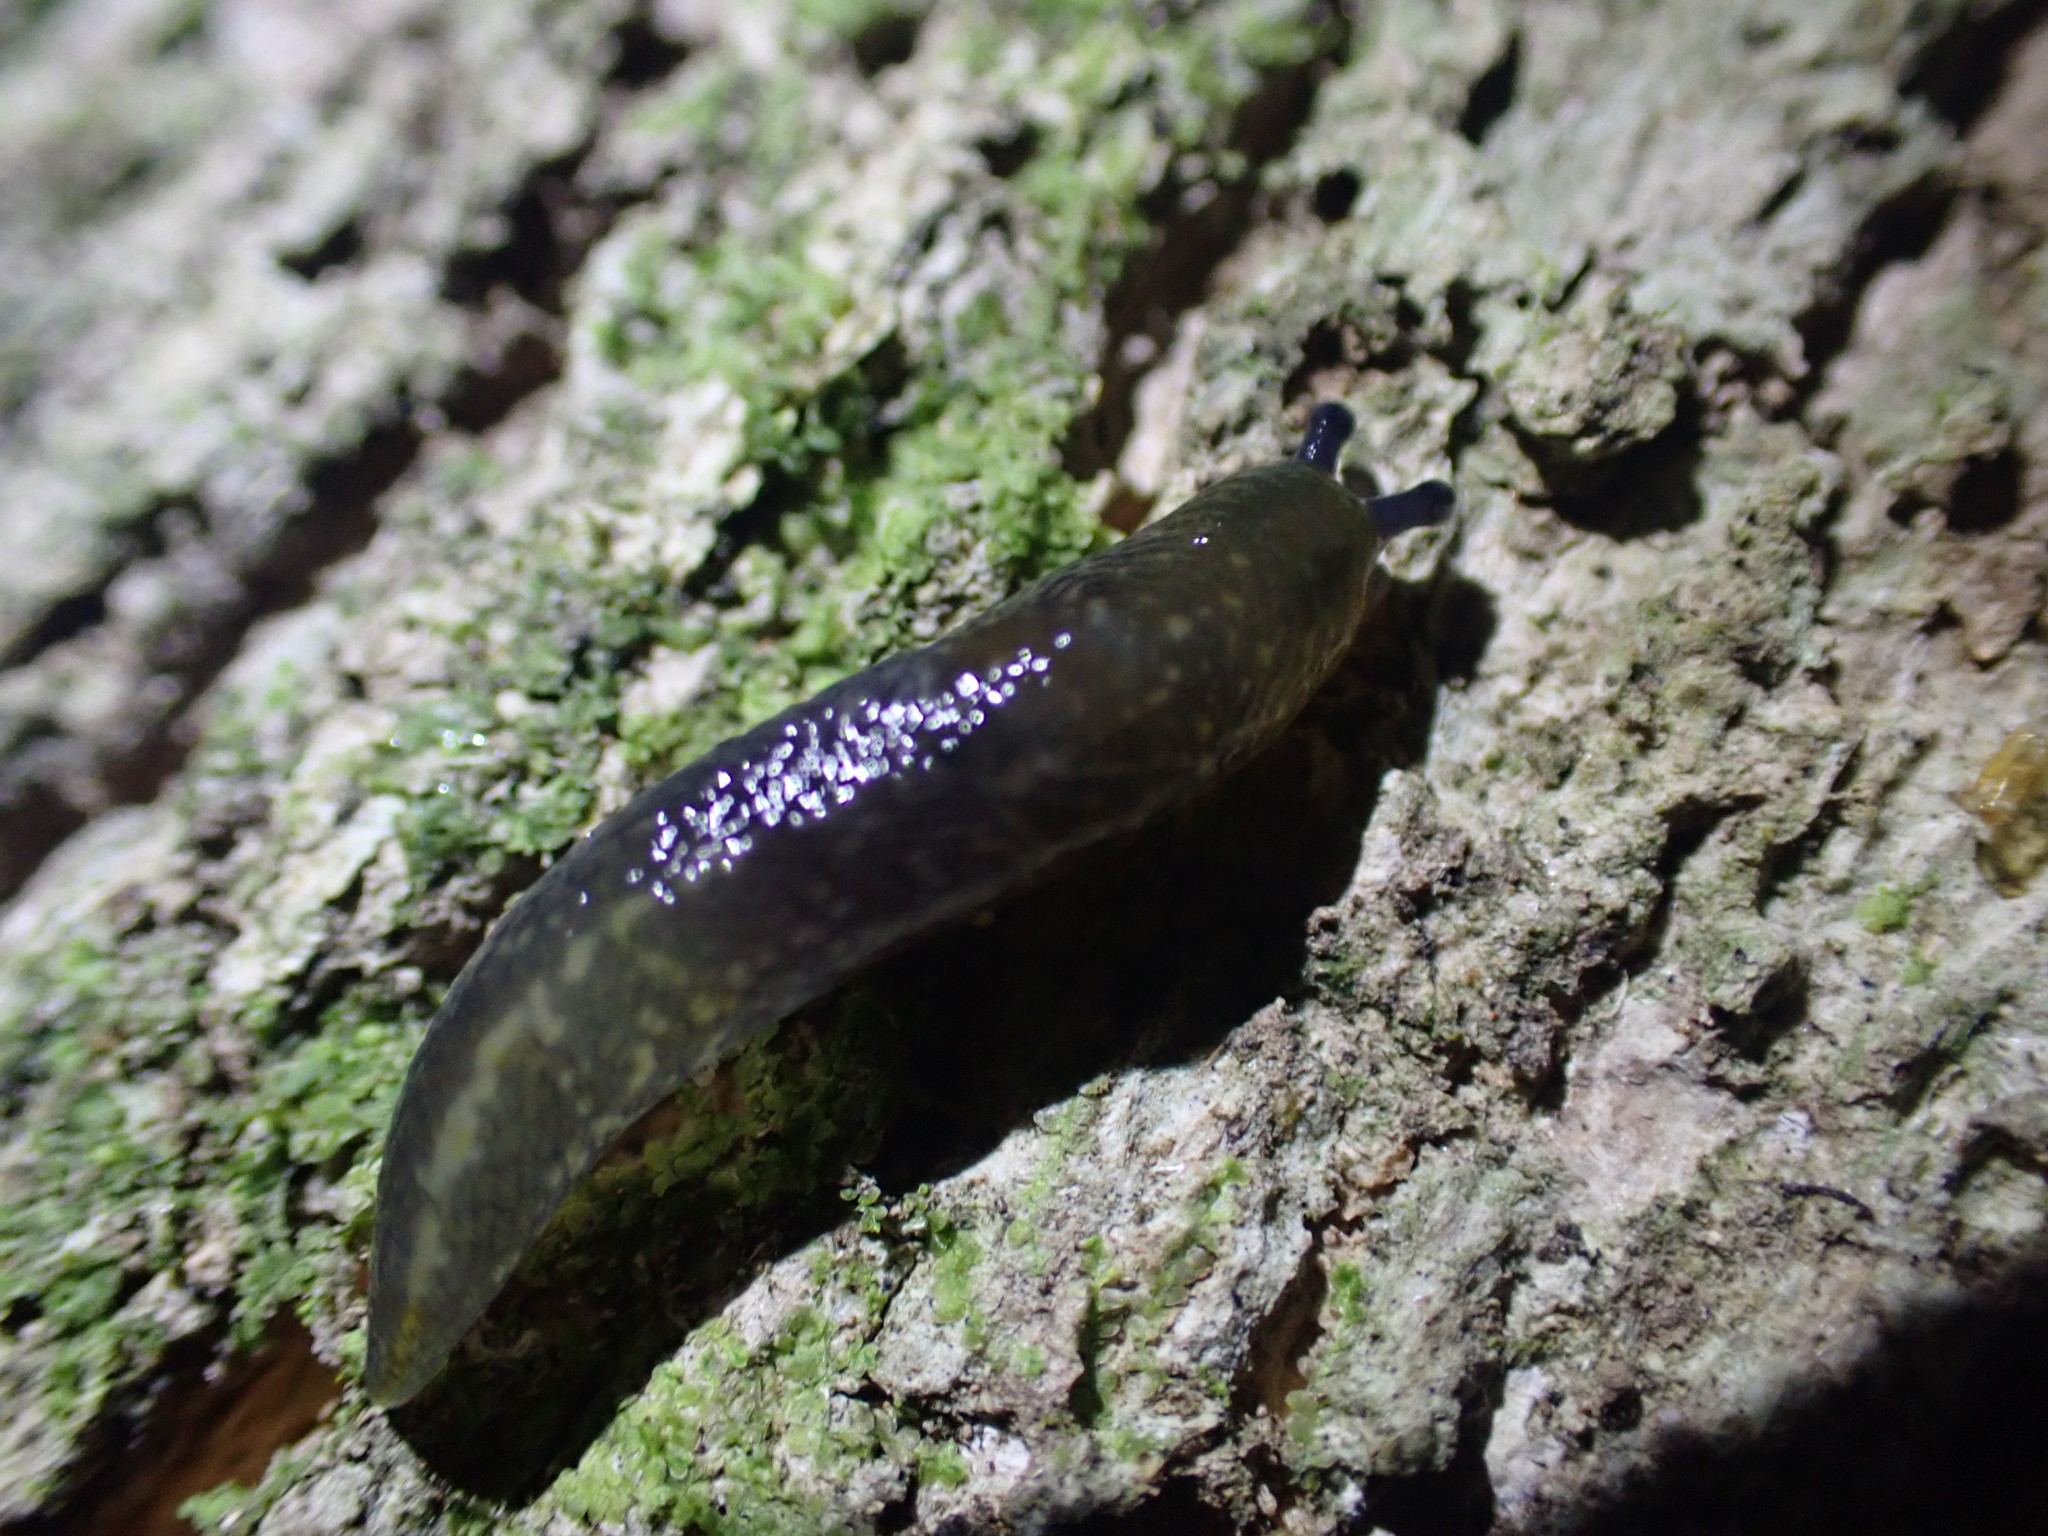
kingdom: Animalia
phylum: Mollusca
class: Gastropoda
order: Stylommatophora
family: Limacidae
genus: Limacus
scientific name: Limacus flavus
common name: Yellow gardenslug
